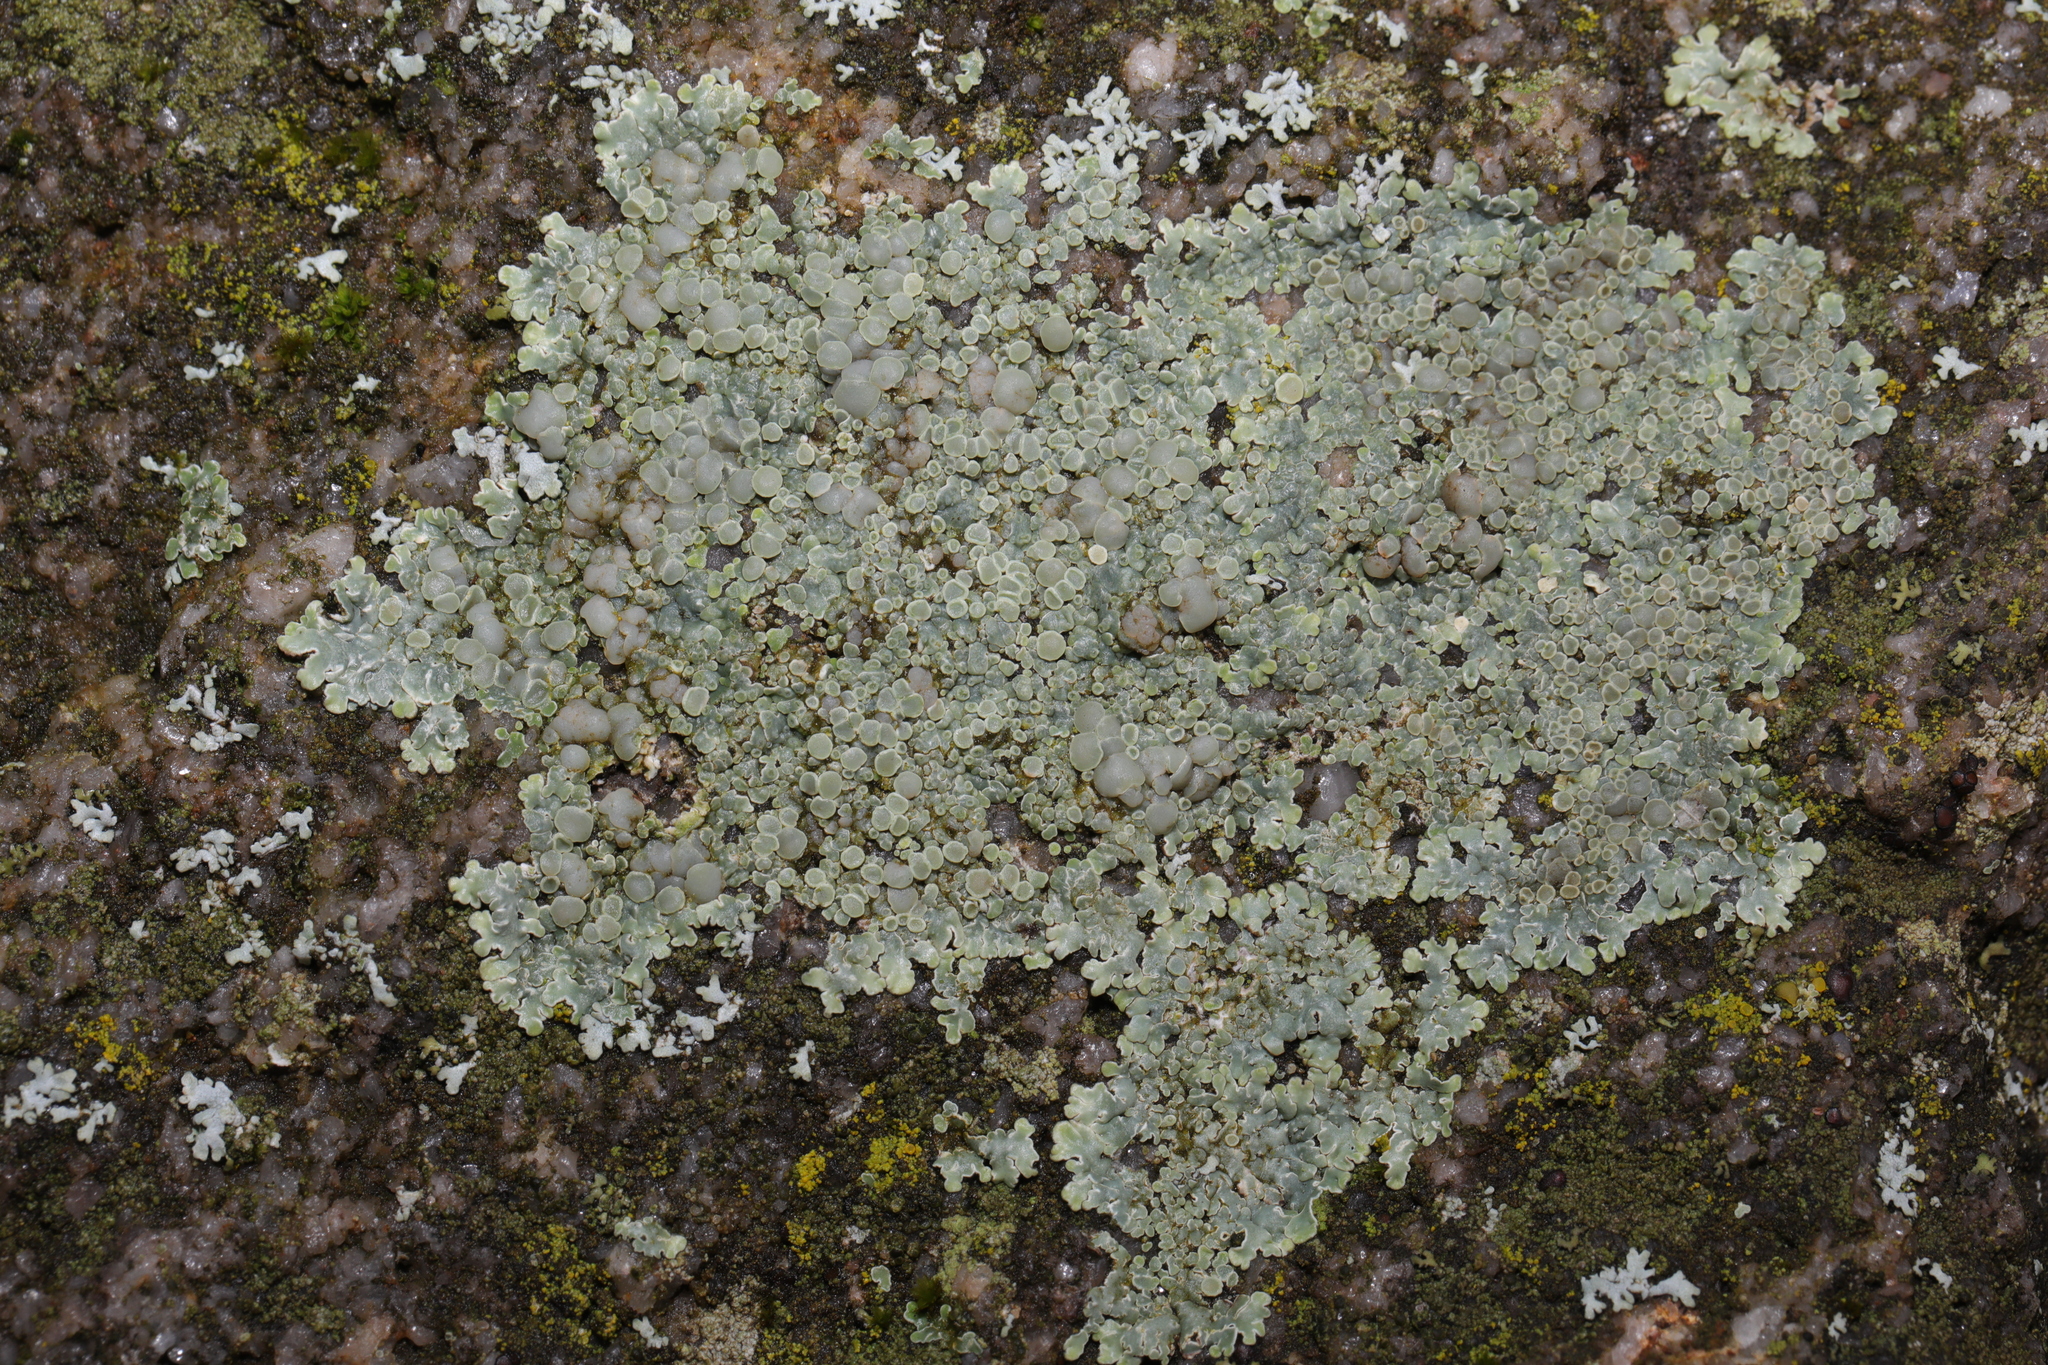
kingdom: Fungi
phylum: Ascomycota
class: Lecanoromycetes
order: Lecanorales
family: Lecanoraceae
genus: Protoparmeliopsis
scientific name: Protoparmeliopsis muralis
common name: Stonewall rim lichen
